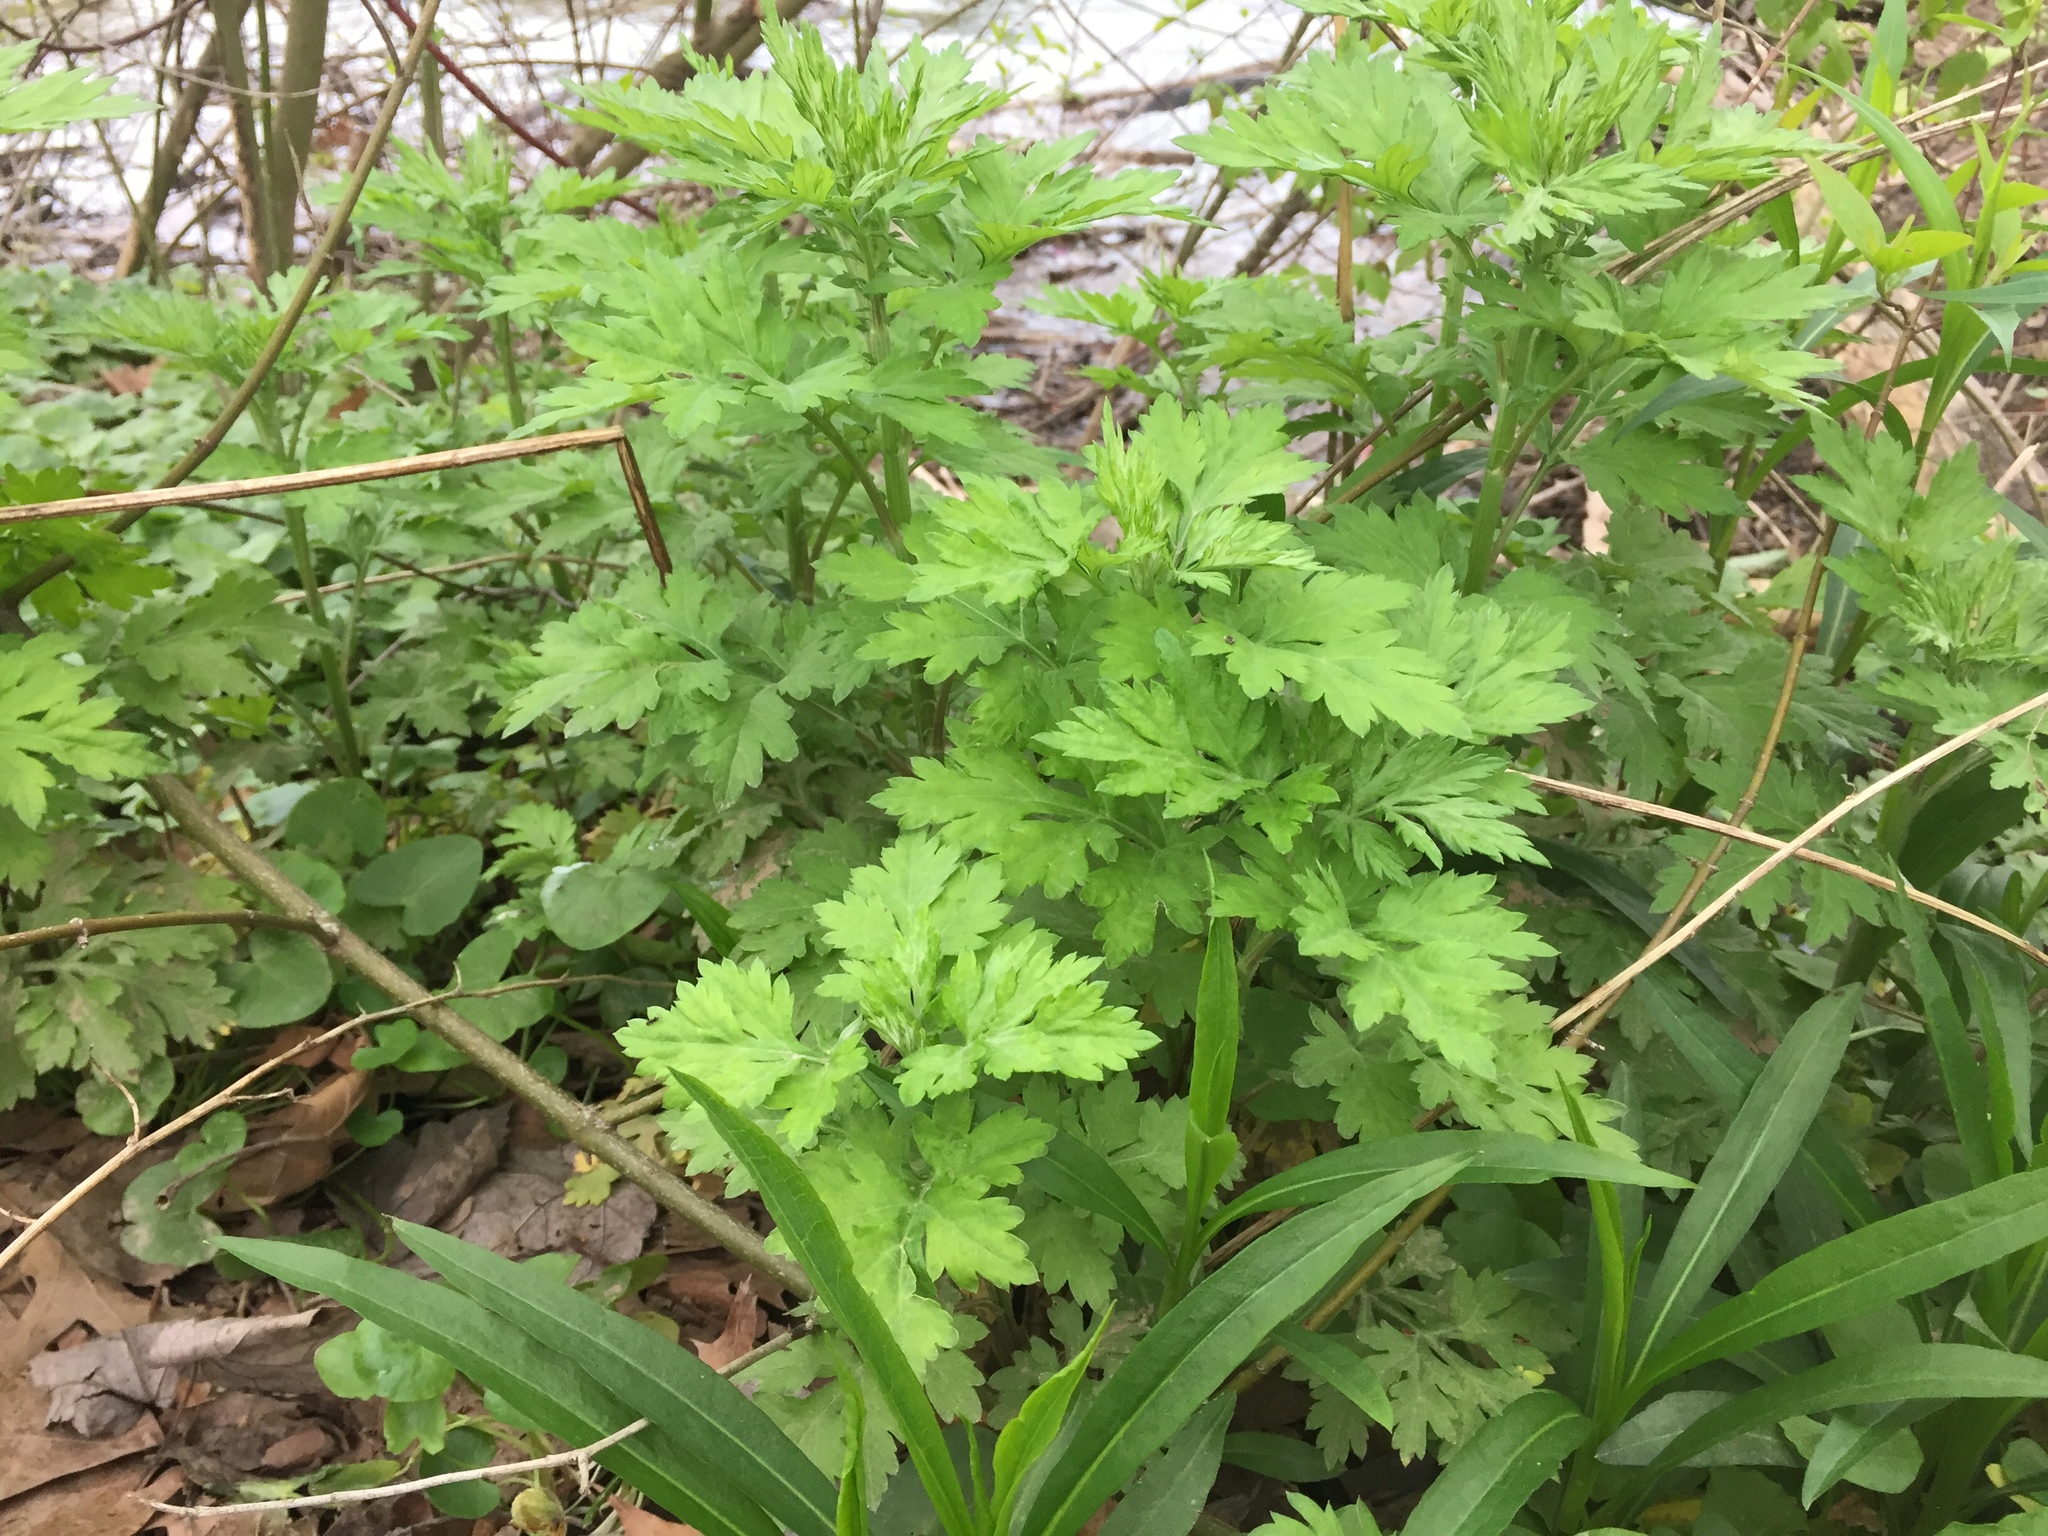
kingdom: Plantae
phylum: Tracheophyta
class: Magnoliopsida
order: Asterales
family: Asteraceae
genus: Artemisia
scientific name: Artemisia vulgaris
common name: Mugwort
